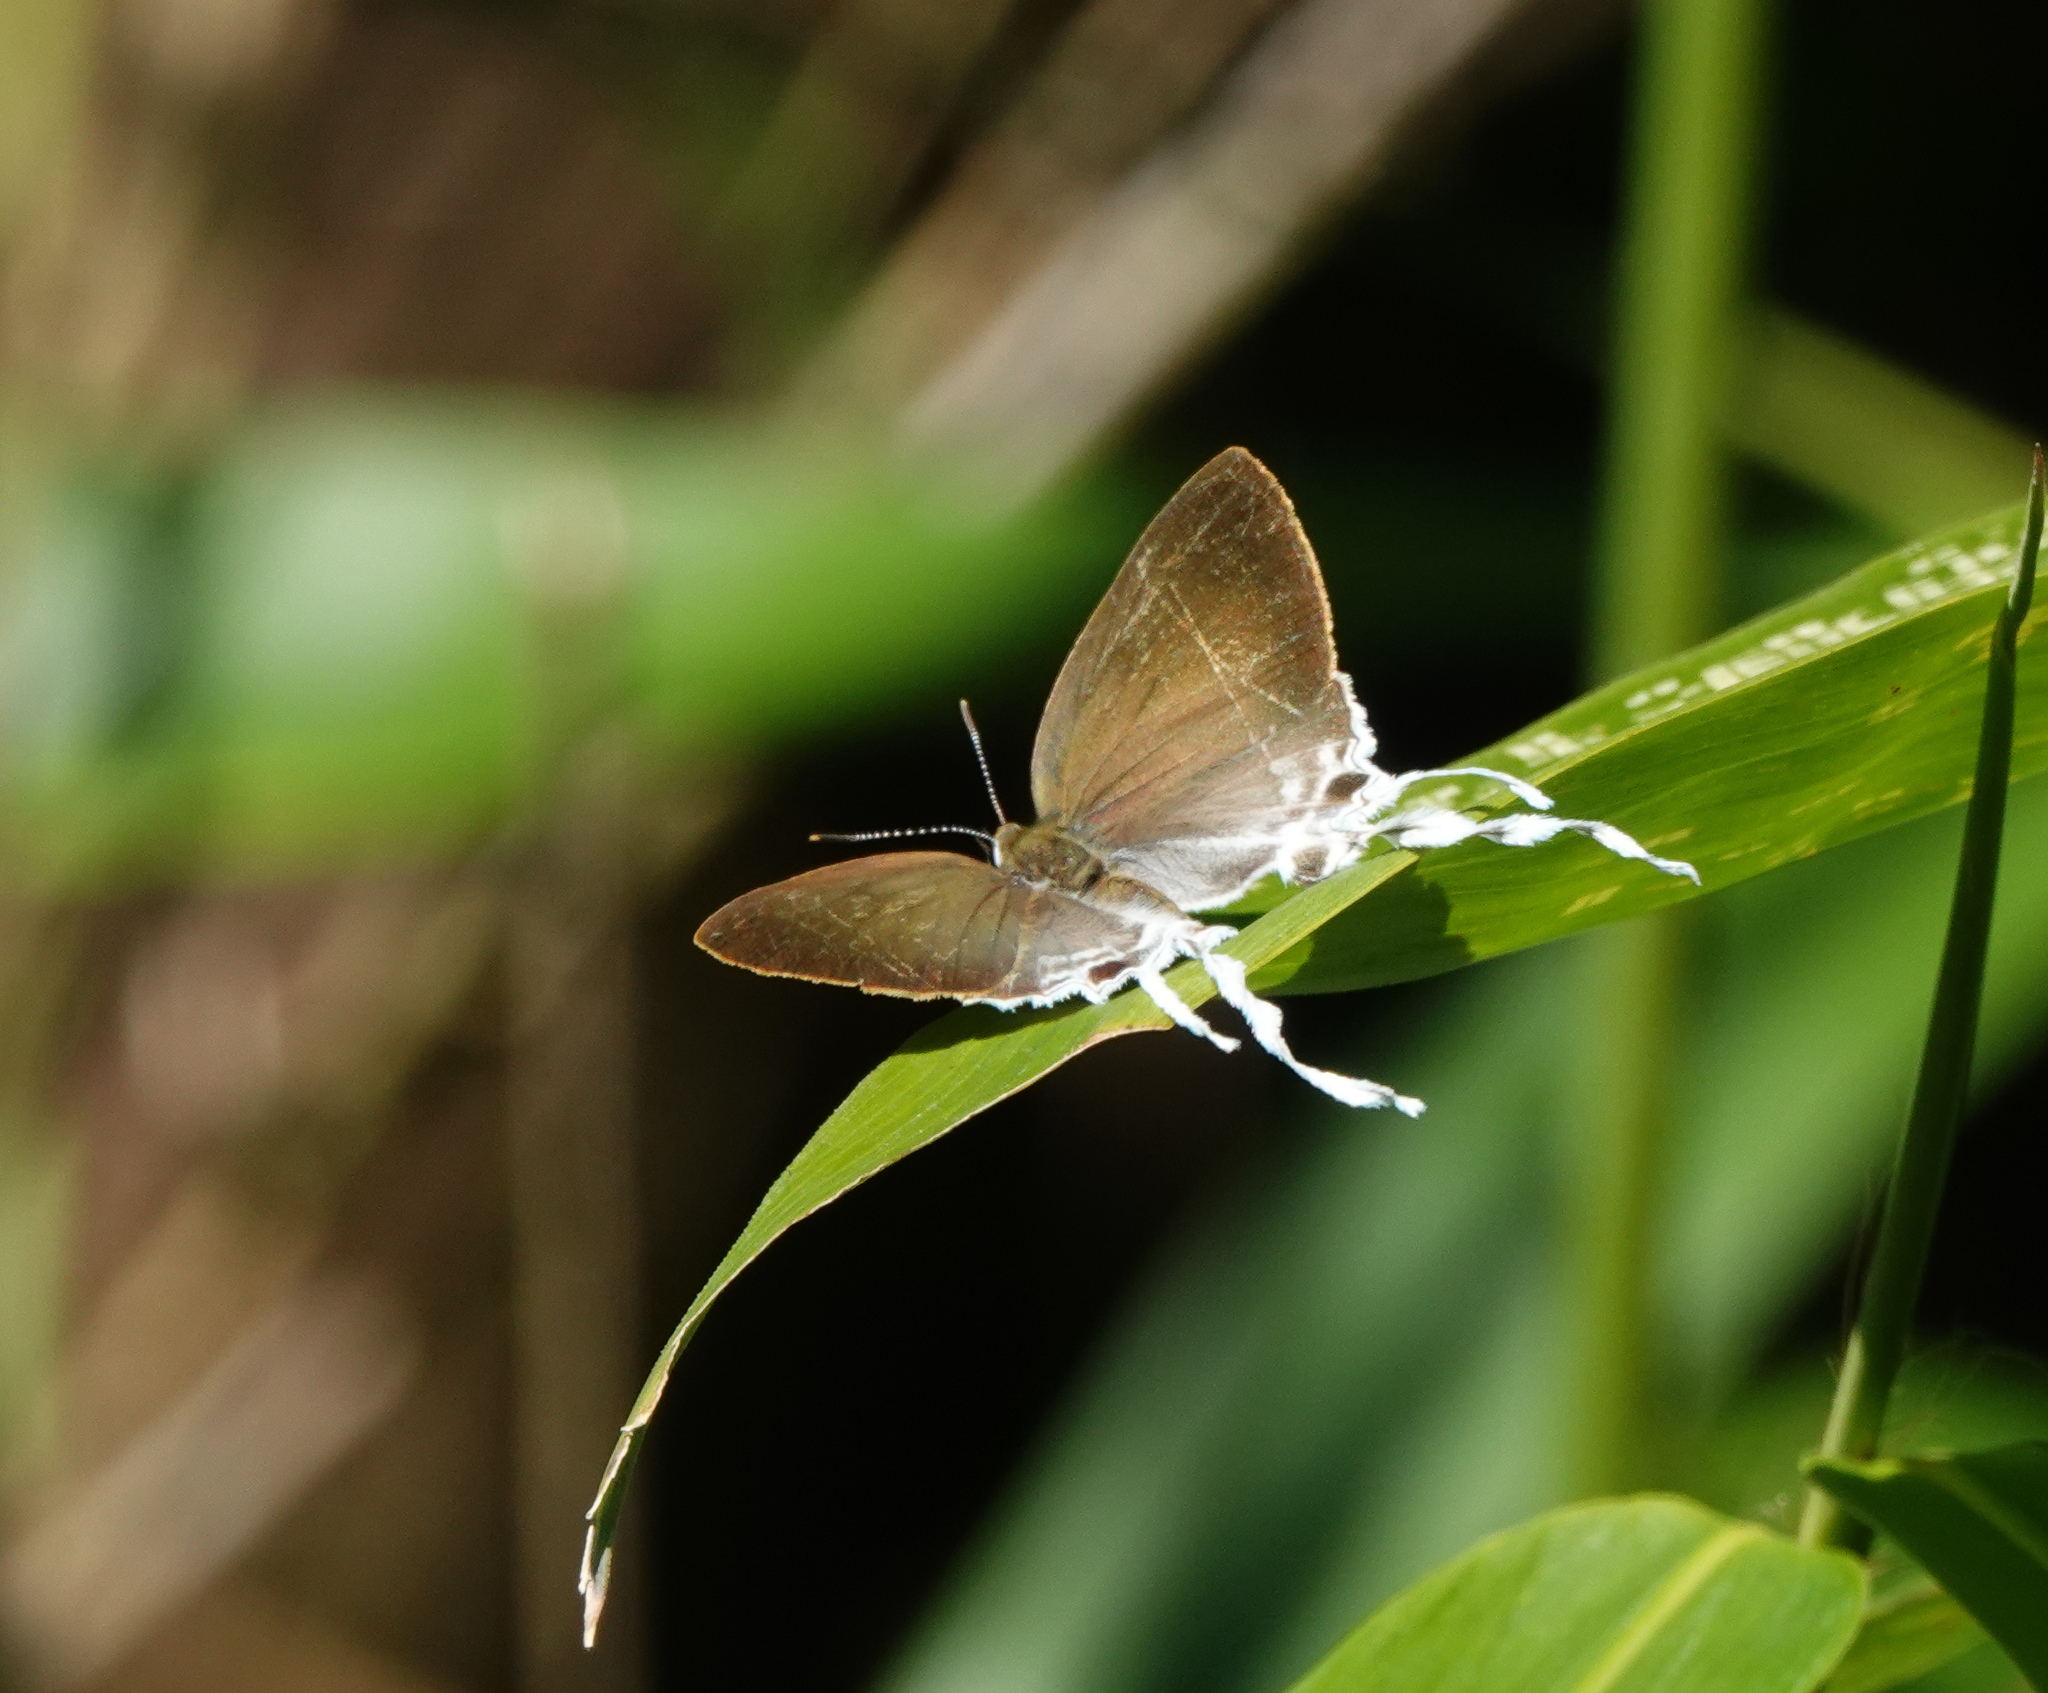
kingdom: Animalia
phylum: Arthropoda
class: Insecta
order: Lepidoptera
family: Lycaenidae
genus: Cheritra
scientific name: Cheritra freja
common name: Common imperial
